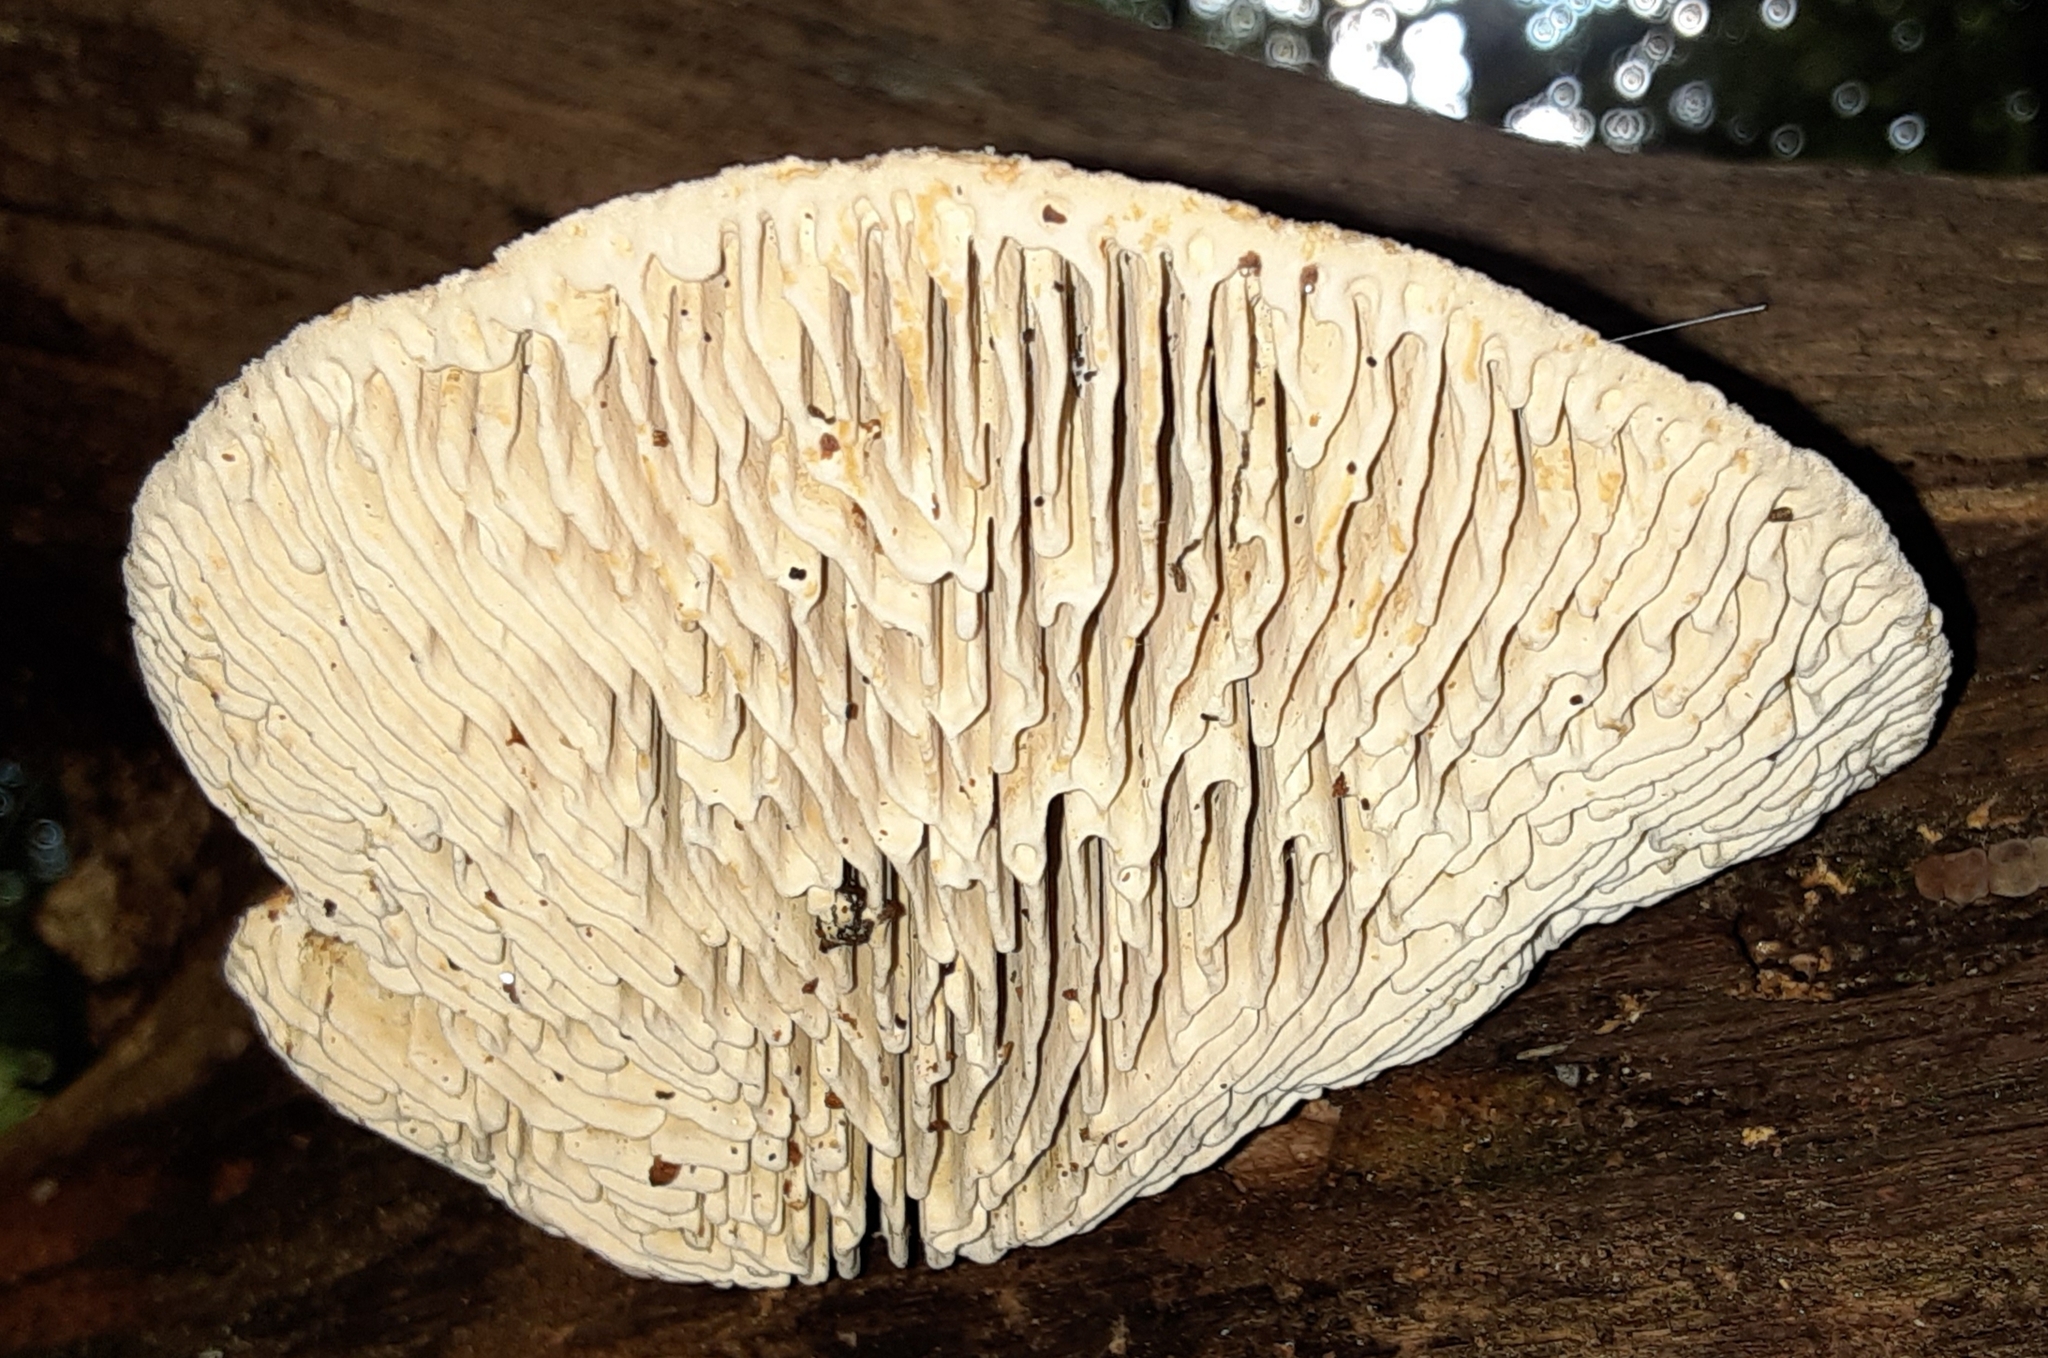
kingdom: Fungi
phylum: Basidiomycota
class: Agaricomycetes
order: Polyporales
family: Fomitopsidaceae
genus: Fomitopsis
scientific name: Fomitopsis
